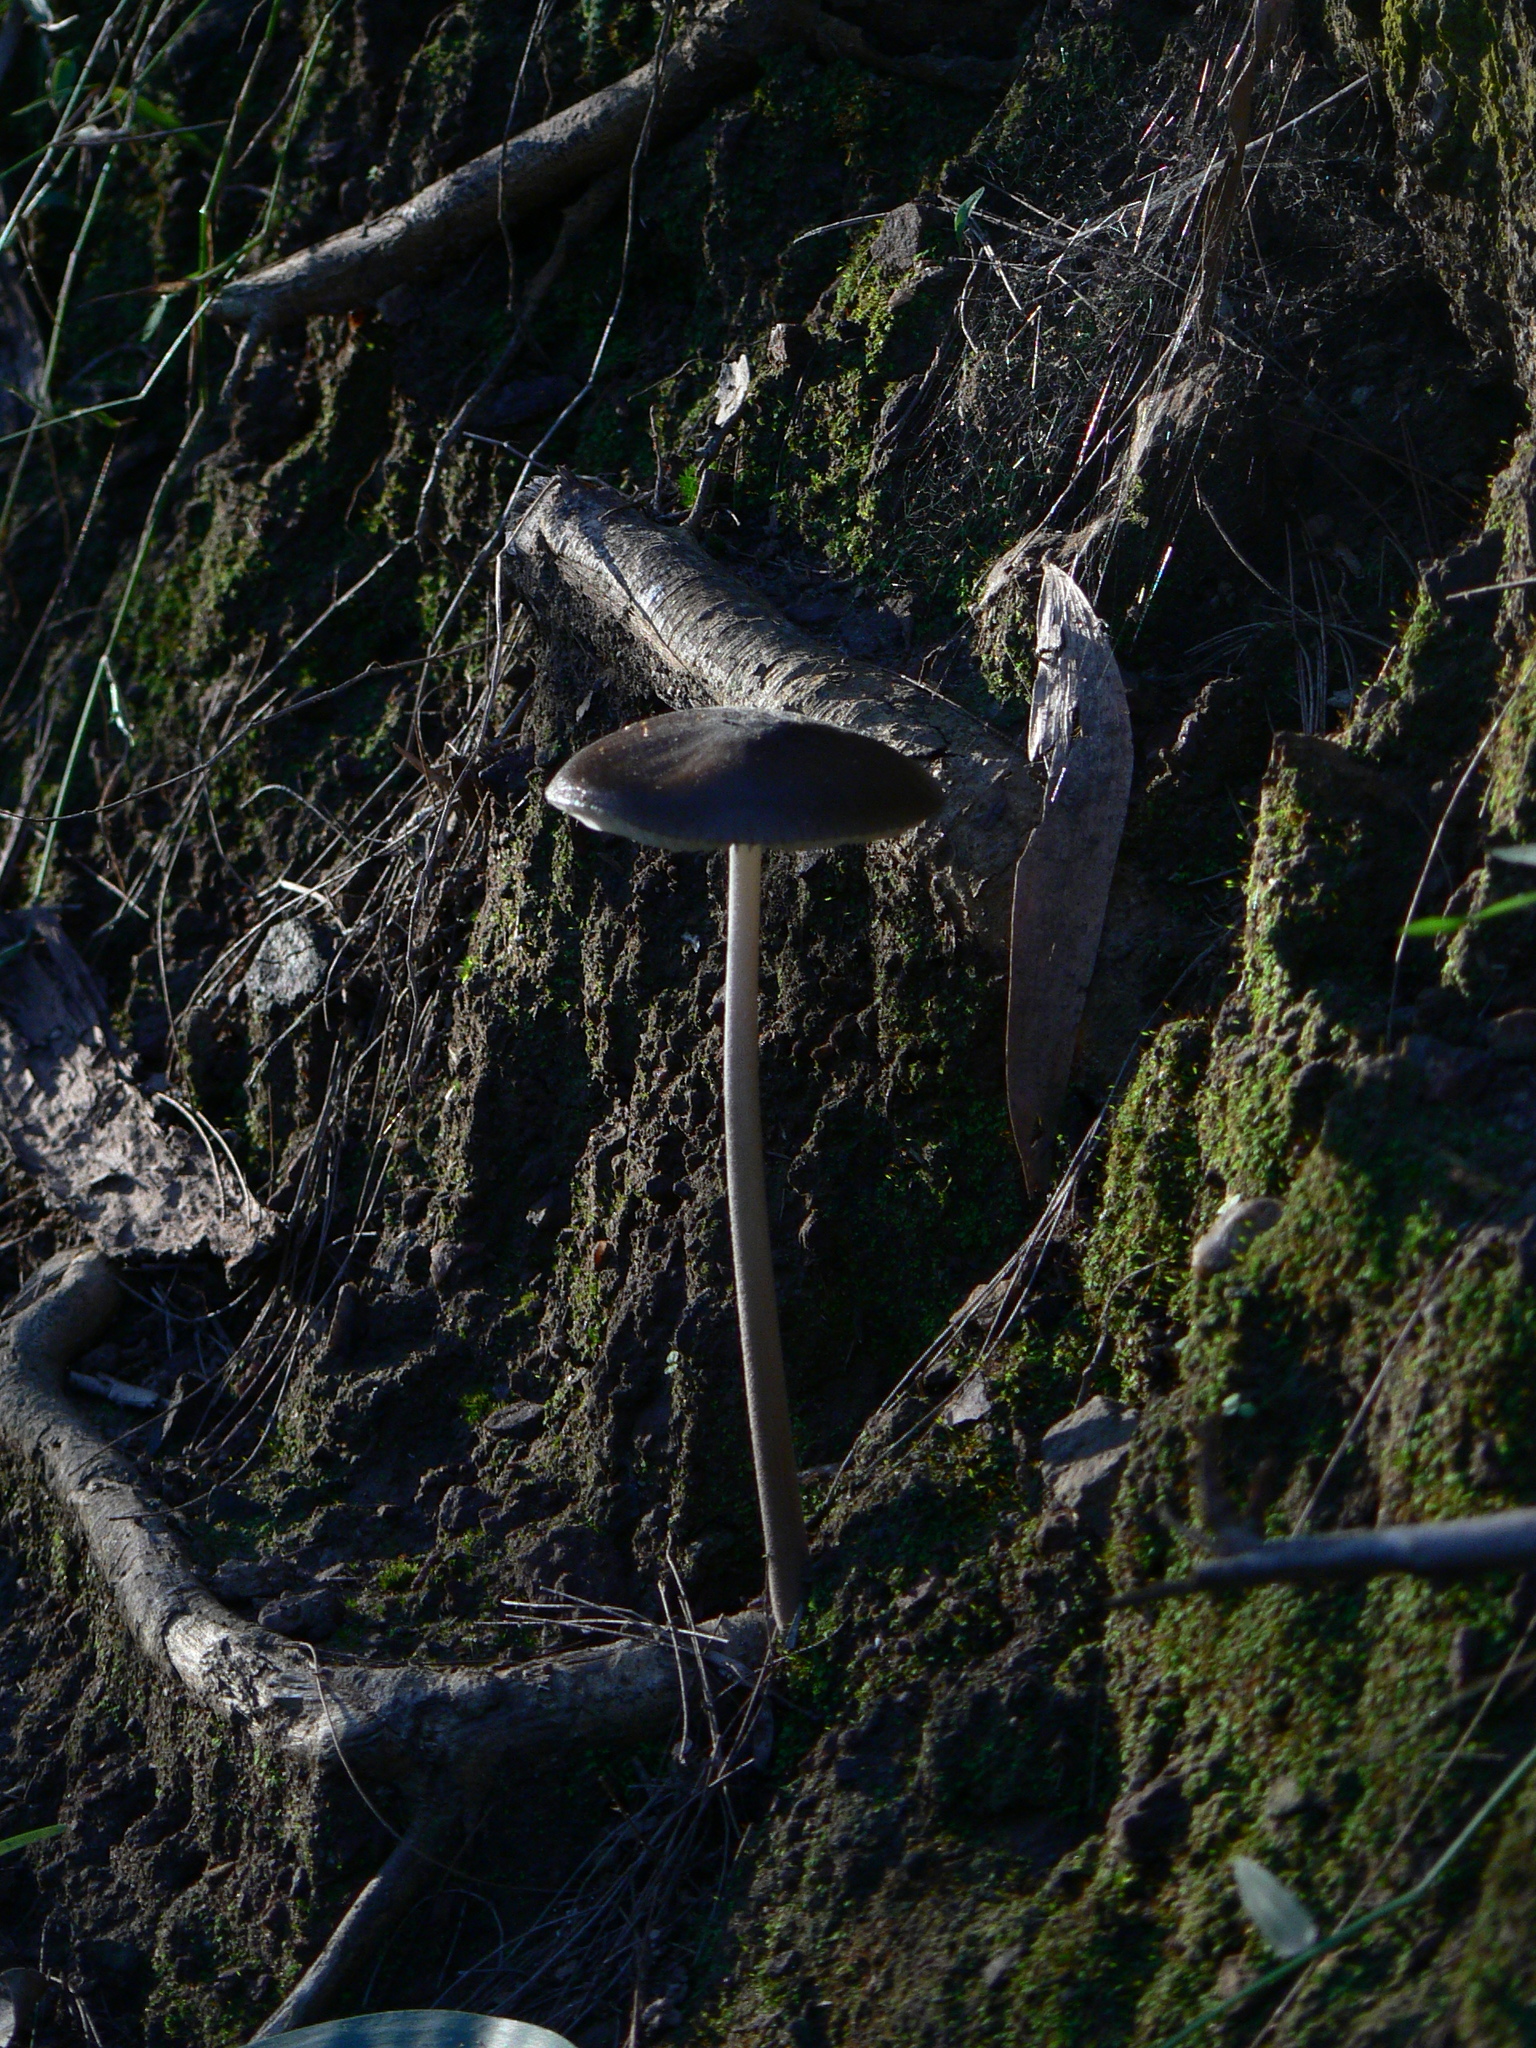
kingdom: Fungi
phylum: Basidiomycota
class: Agaricomycetes
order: Agaricales
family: Physalacriaceae
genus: Hymenopellis
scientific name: Hymenopellis gigaspora
